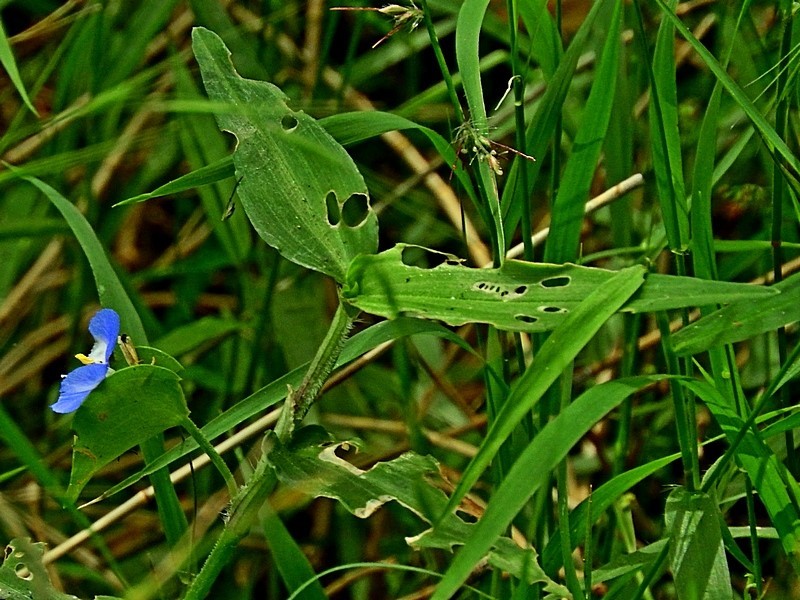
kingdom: Plantae
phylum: Tracheophyta
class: Liliopsida
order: Commelinales
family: Commelinaceae
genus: Commelina
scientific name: Commelina cyanea
